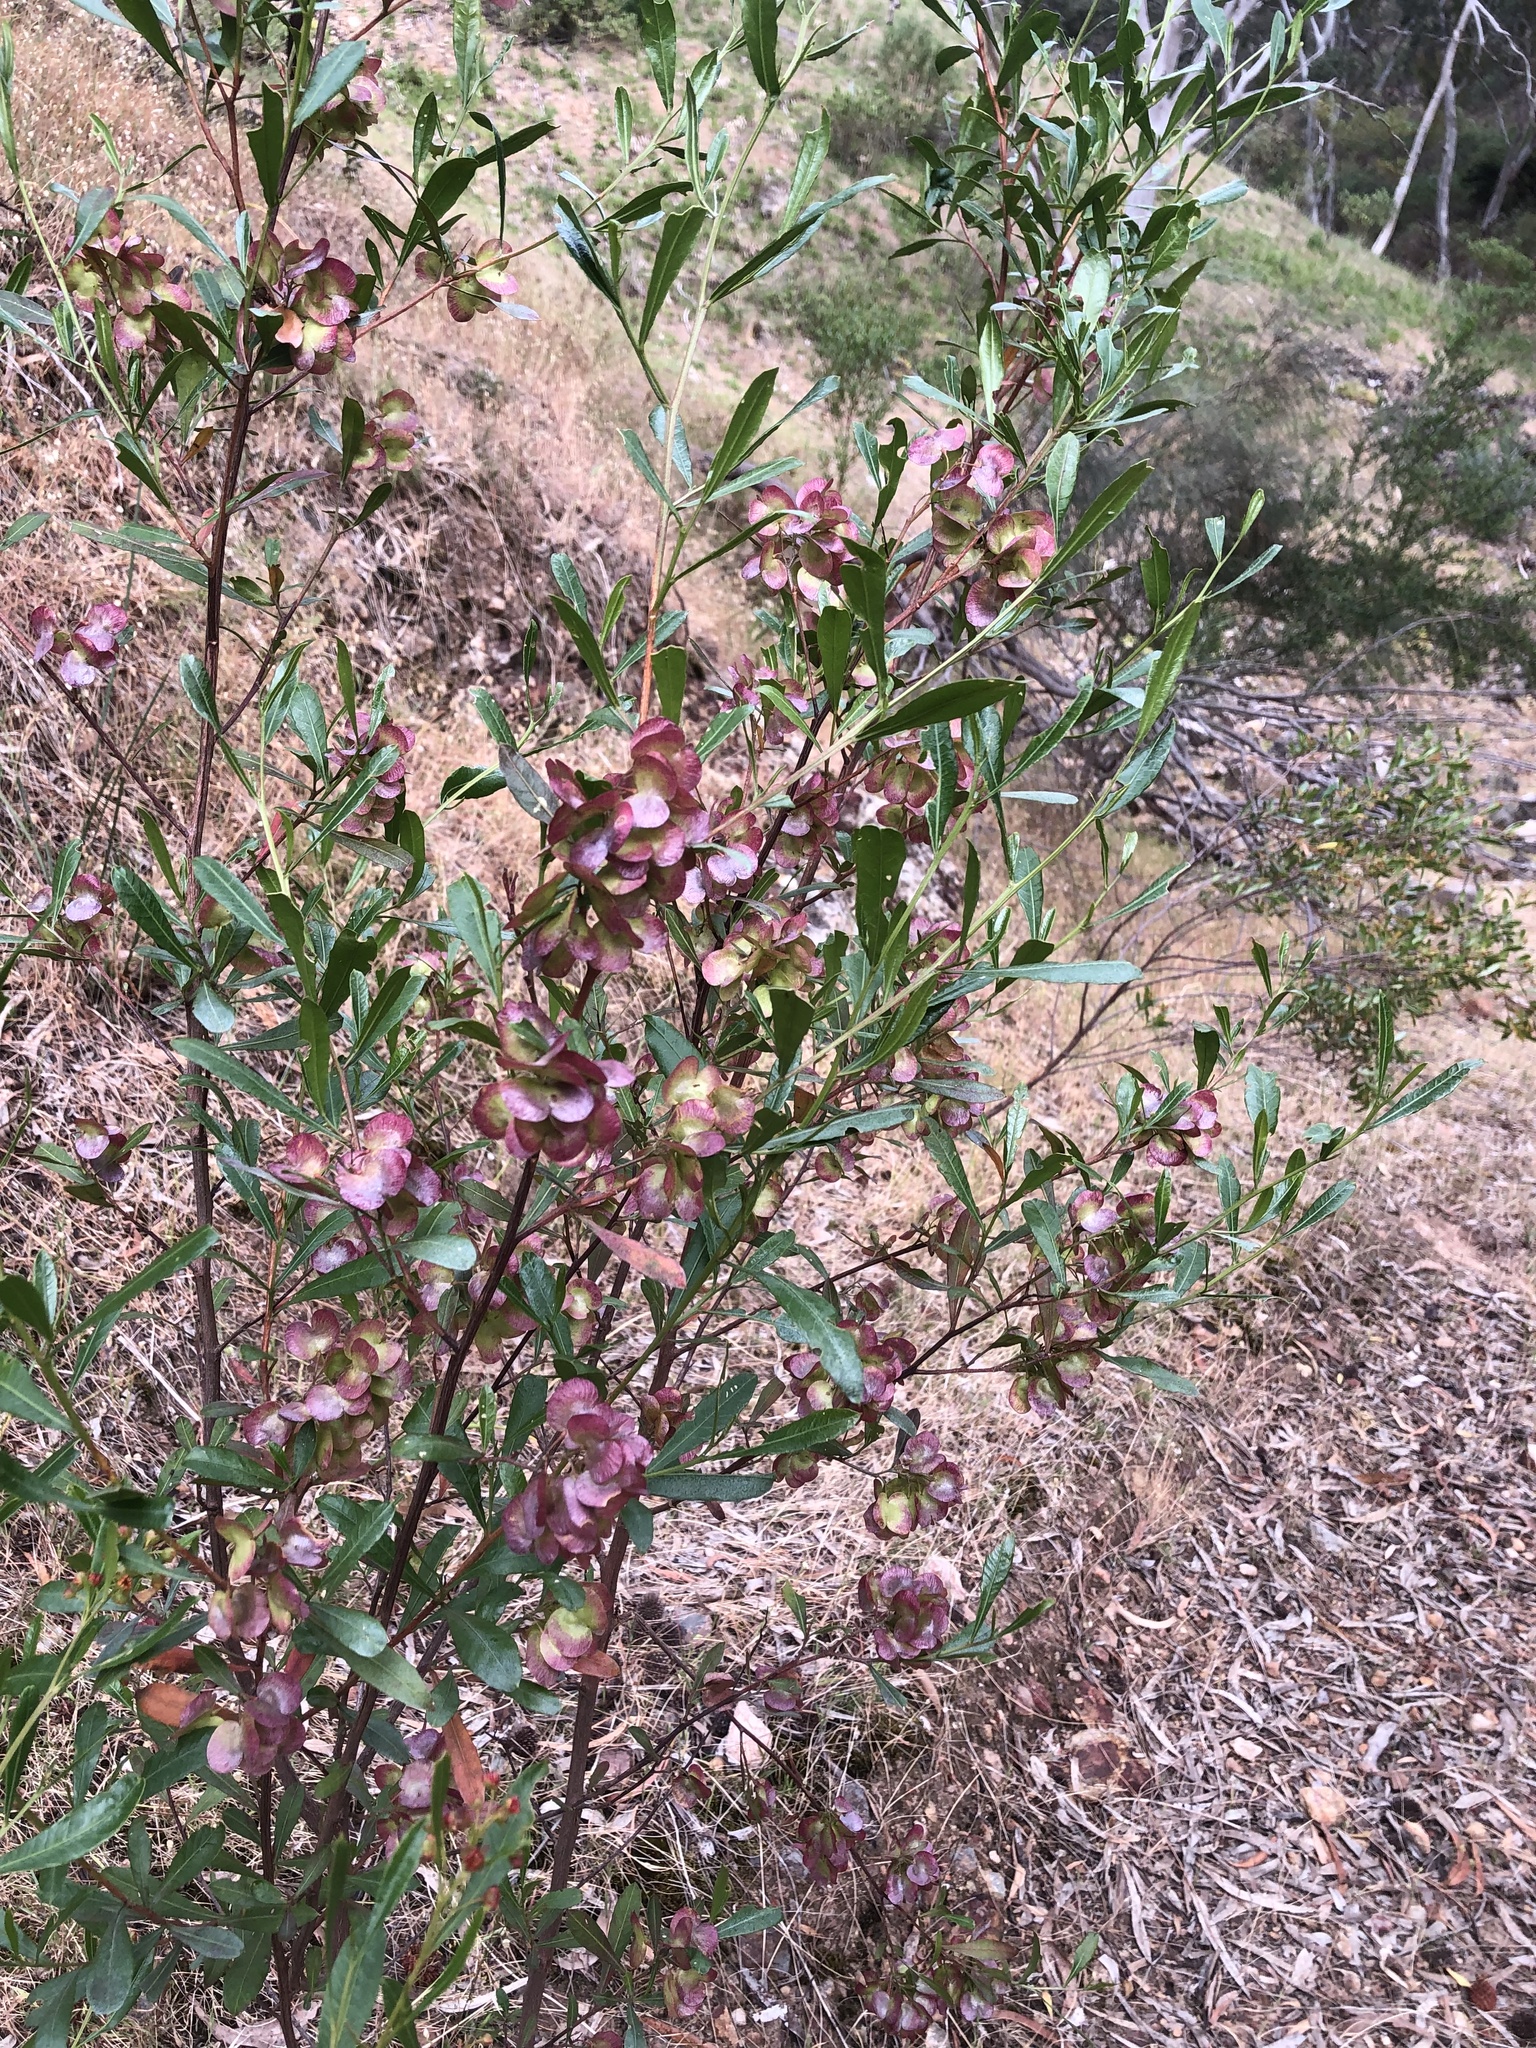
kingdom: Plantae
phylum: Tracheophyta
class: Magnoliopsida
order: Sapindales
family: Sapindaceae
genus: Dodonaea
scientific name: Dodonaea viscosa
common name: Hopbush
